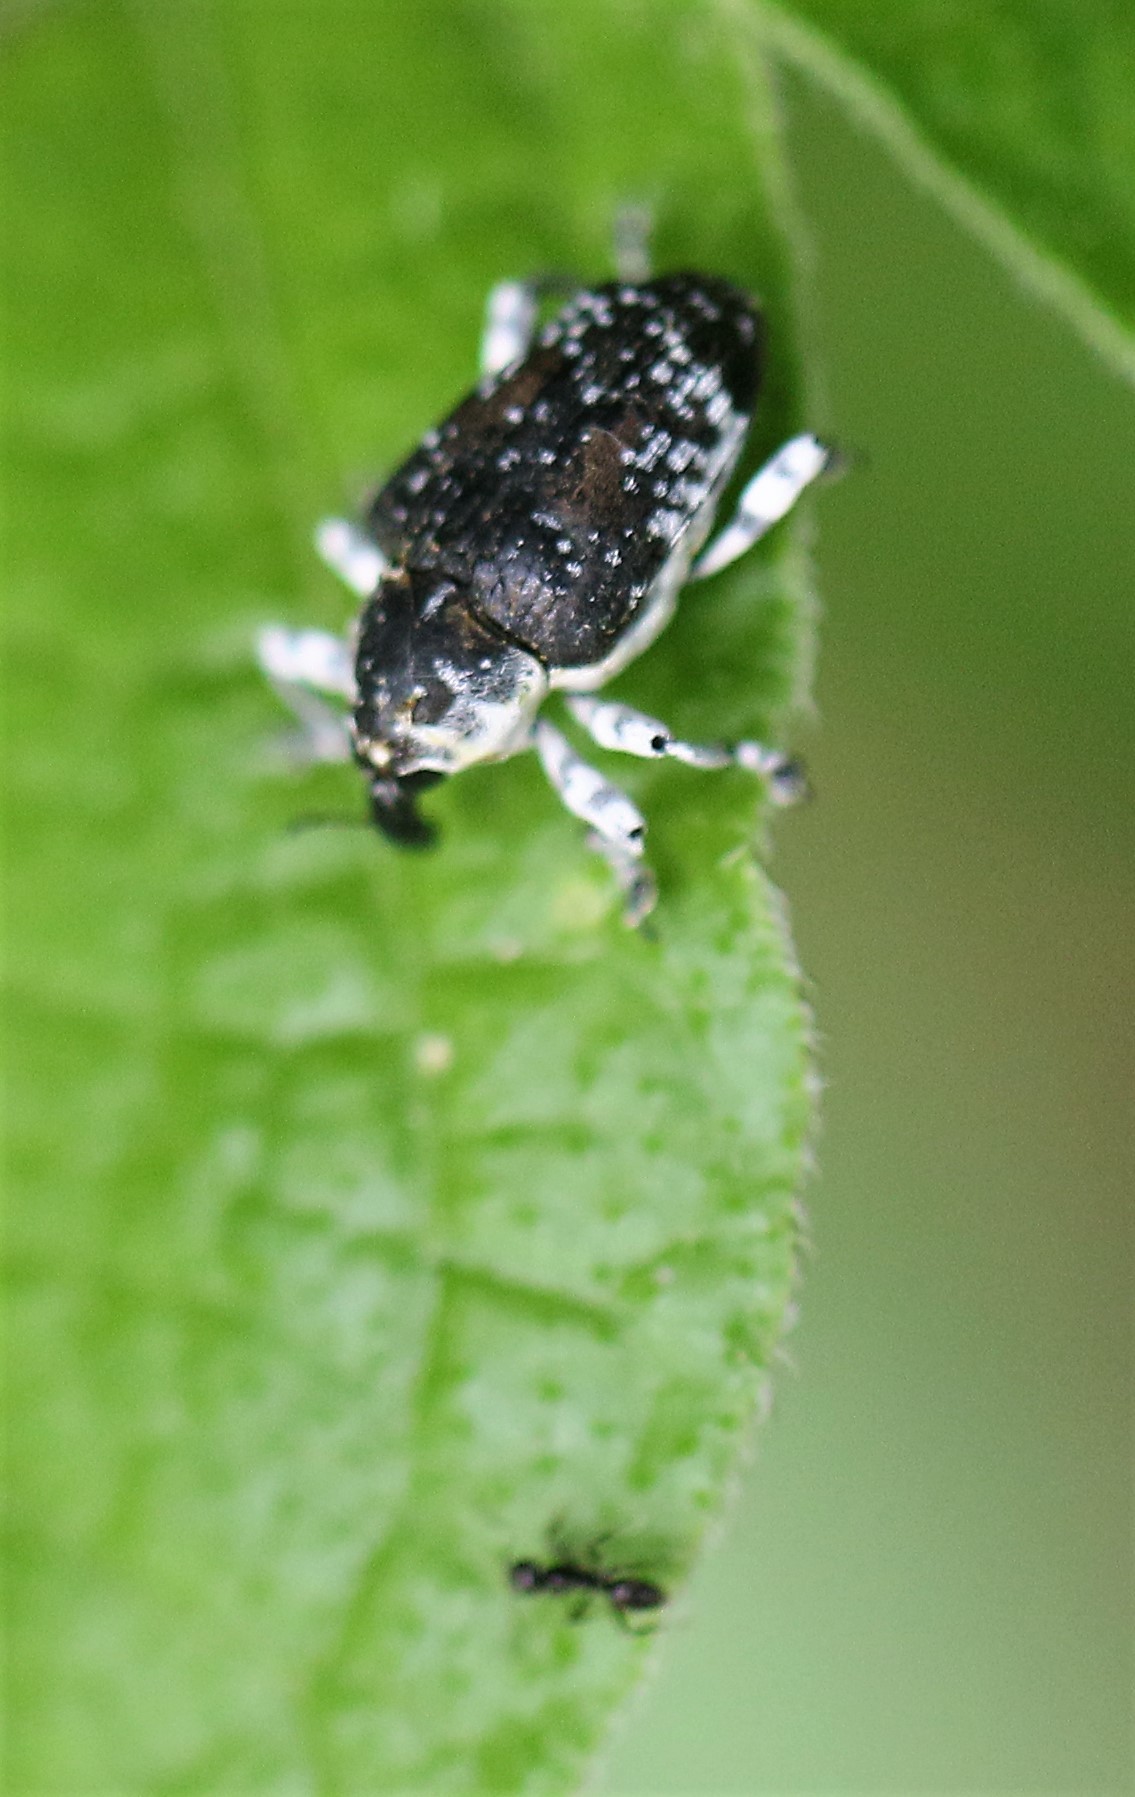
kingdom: Animalia
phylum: Arthropoda
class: Insecta
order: Coleoptera
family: Curculionidae
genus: Peridinetus
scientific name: Peridinetus irroratus
